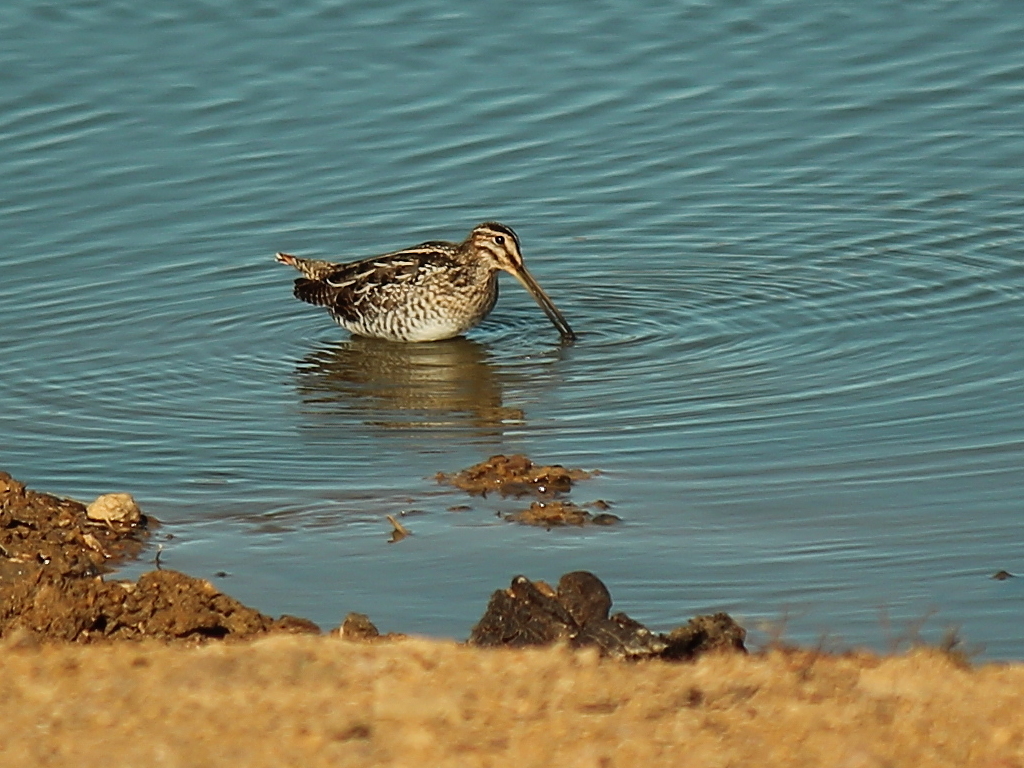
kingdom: Animalia
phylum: Chordata
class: Aves
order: Charadriiformes
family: Scolopacidae
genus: Gallinago
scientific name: Gallinago delicata
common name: Wilson's snipe
